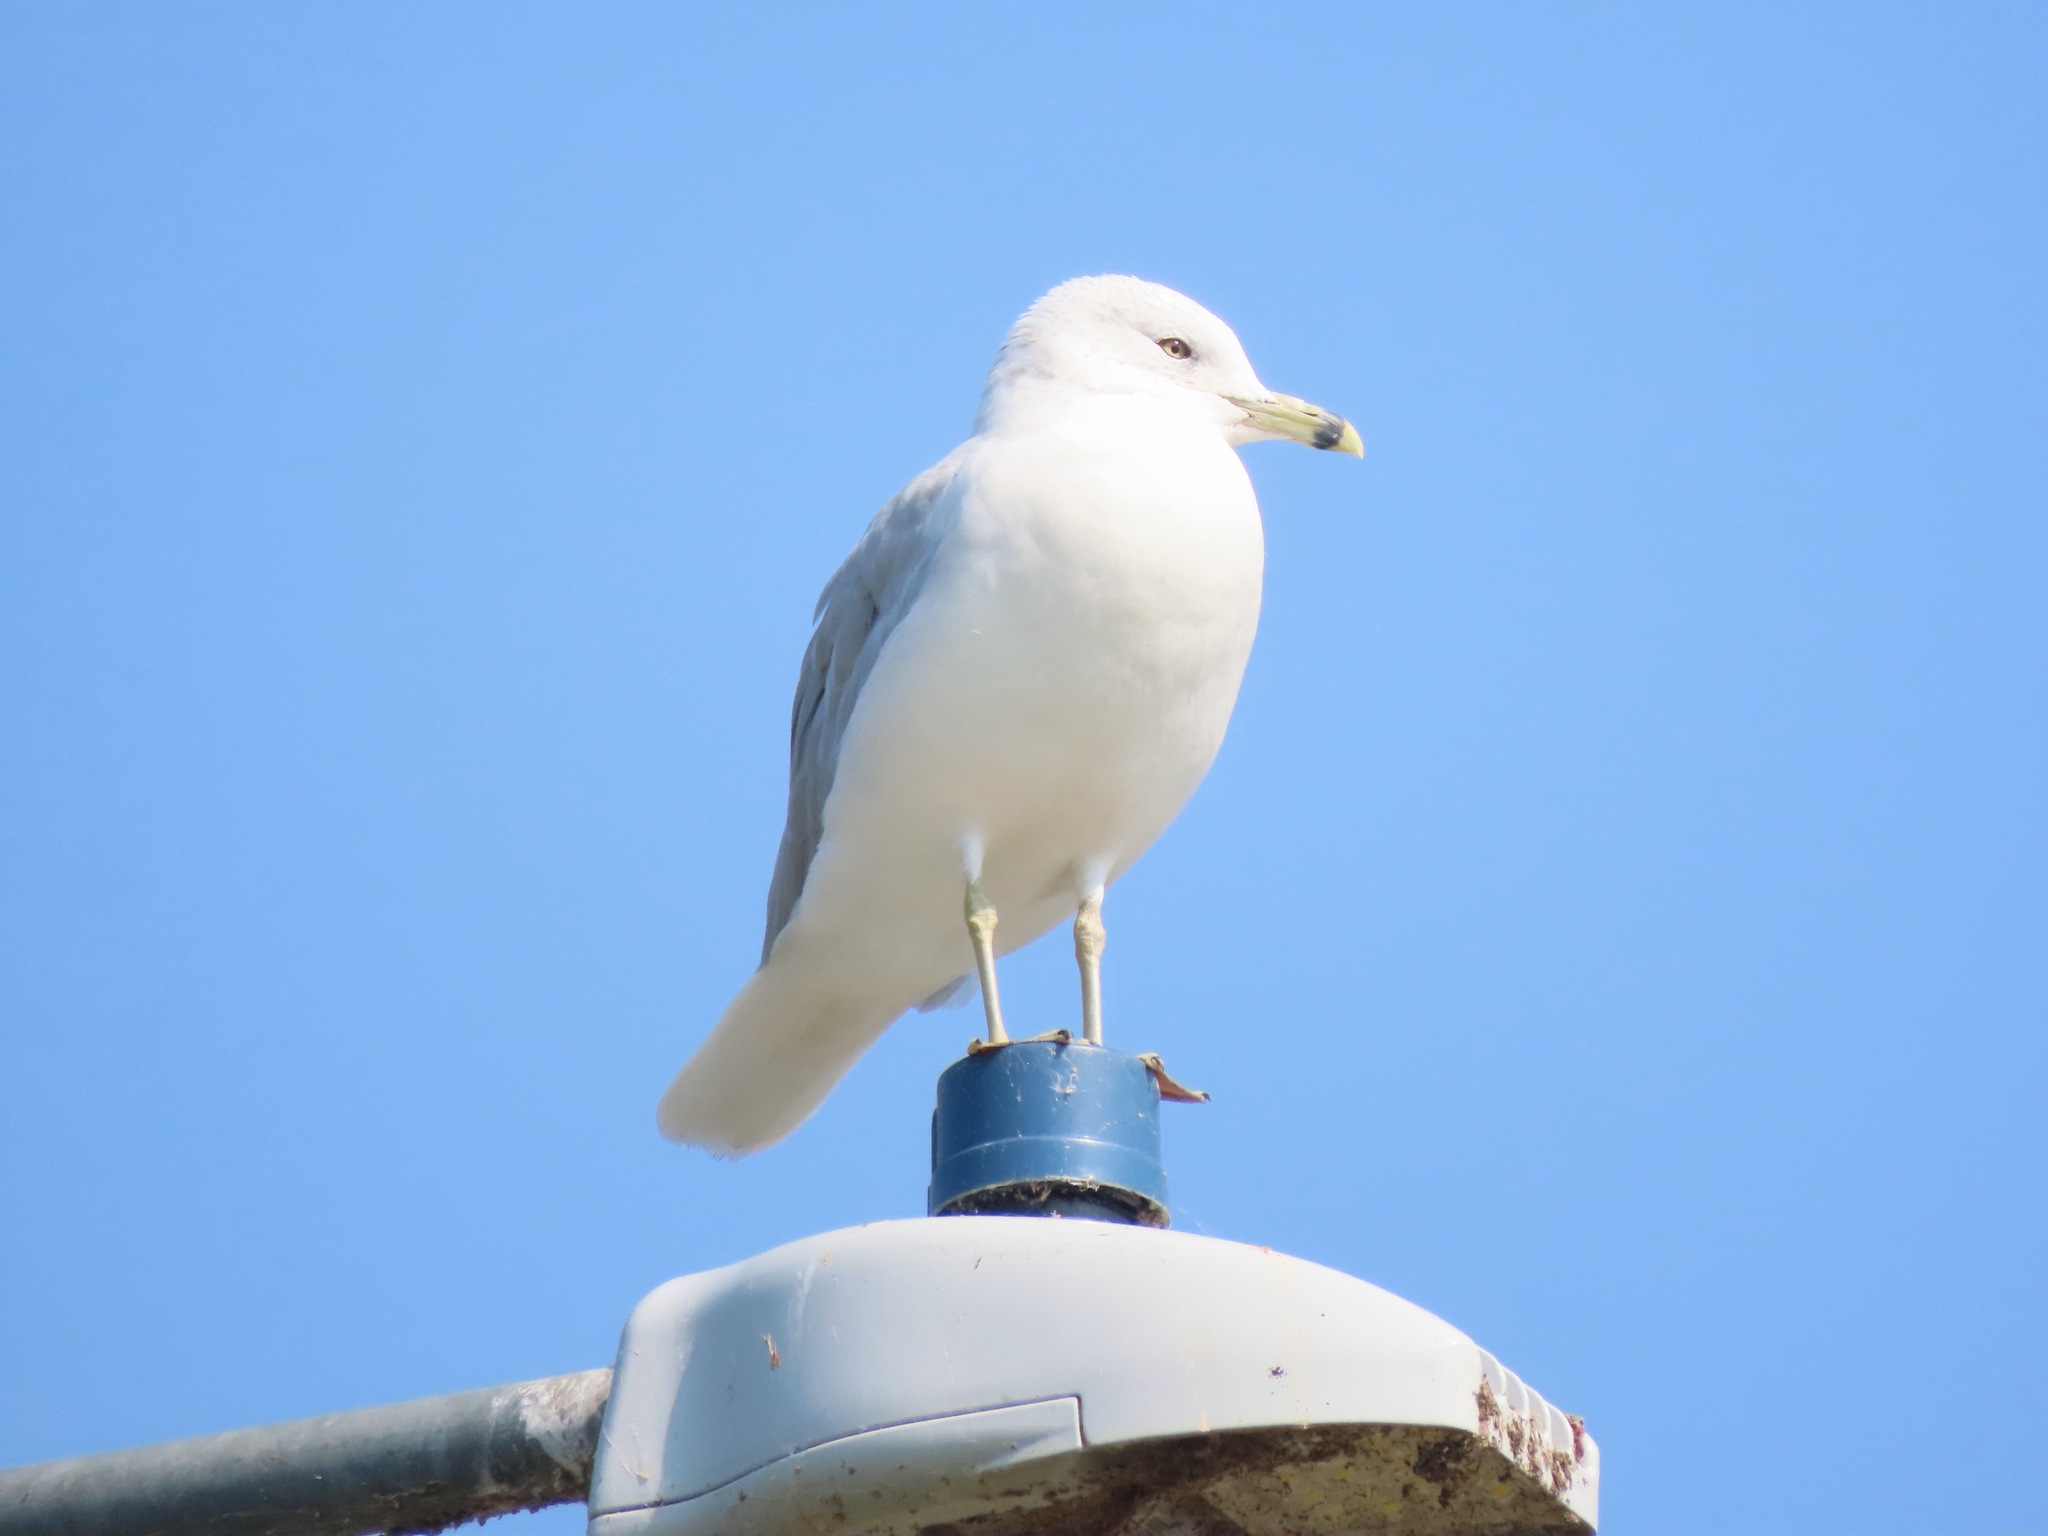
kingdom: Animalia
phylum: Chordata
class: Aves
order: Charadriiformes
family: Laridae
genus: Larus
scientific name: Larus delawarensis
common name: Ring-billed gull
